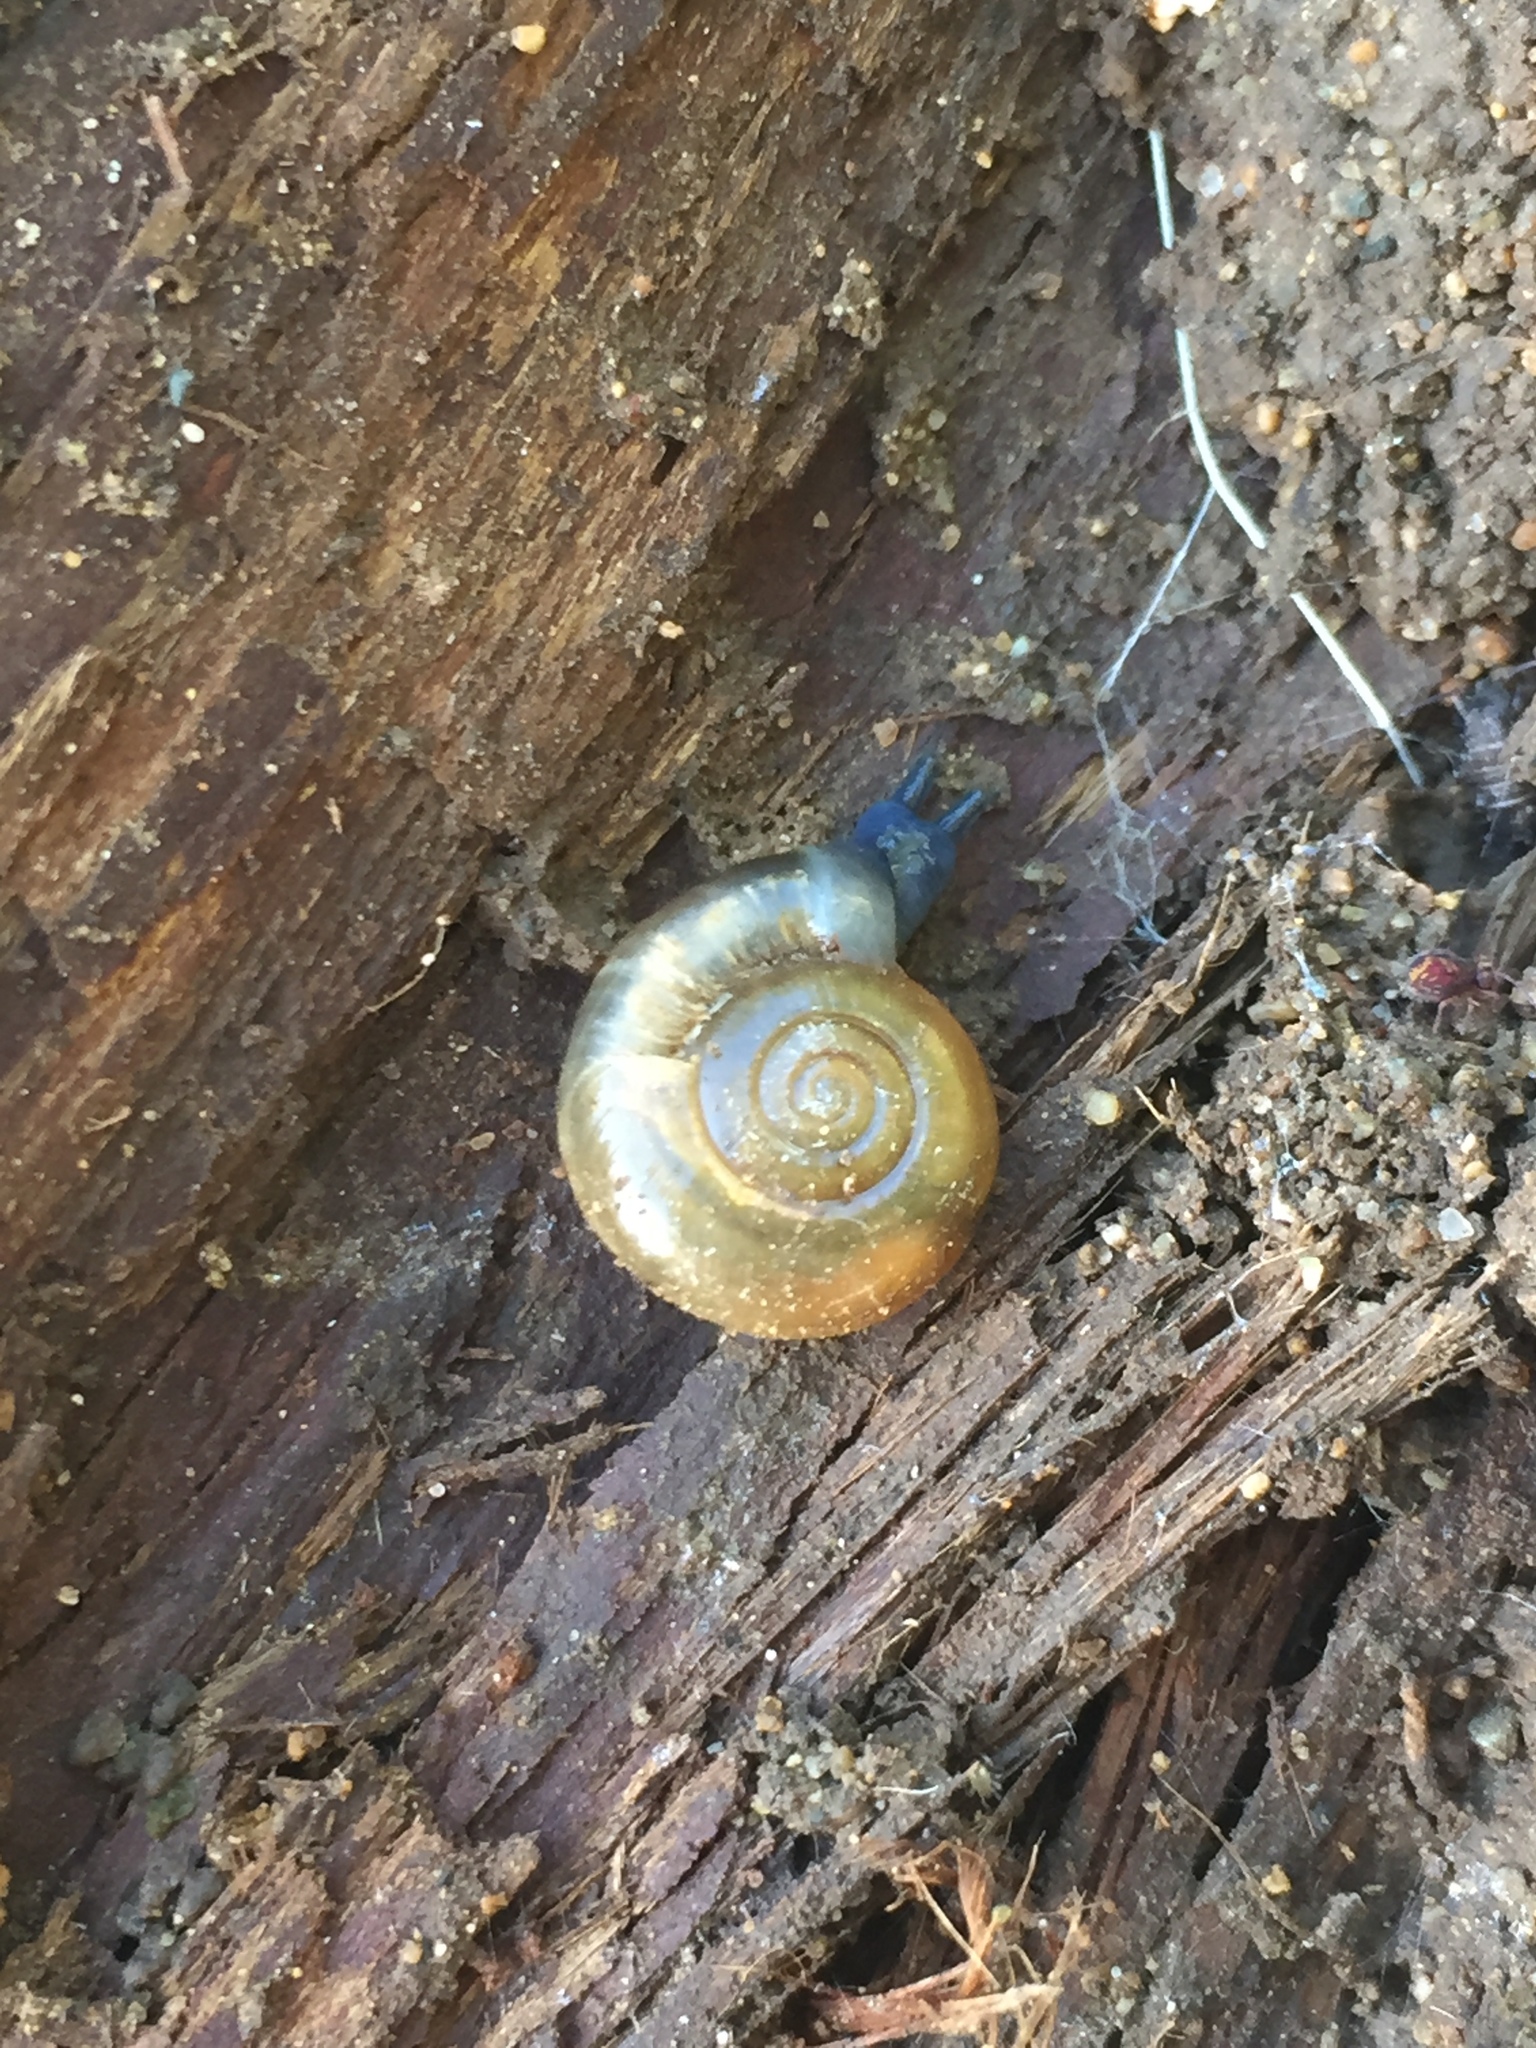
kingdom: Animalia
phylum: Mollusca
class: Gastropoda
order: Stylommatophora
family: Oxychilidae
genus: Oxychilus
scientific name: Oxychilus draparnaudi
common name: Draparnaud's glass snail
